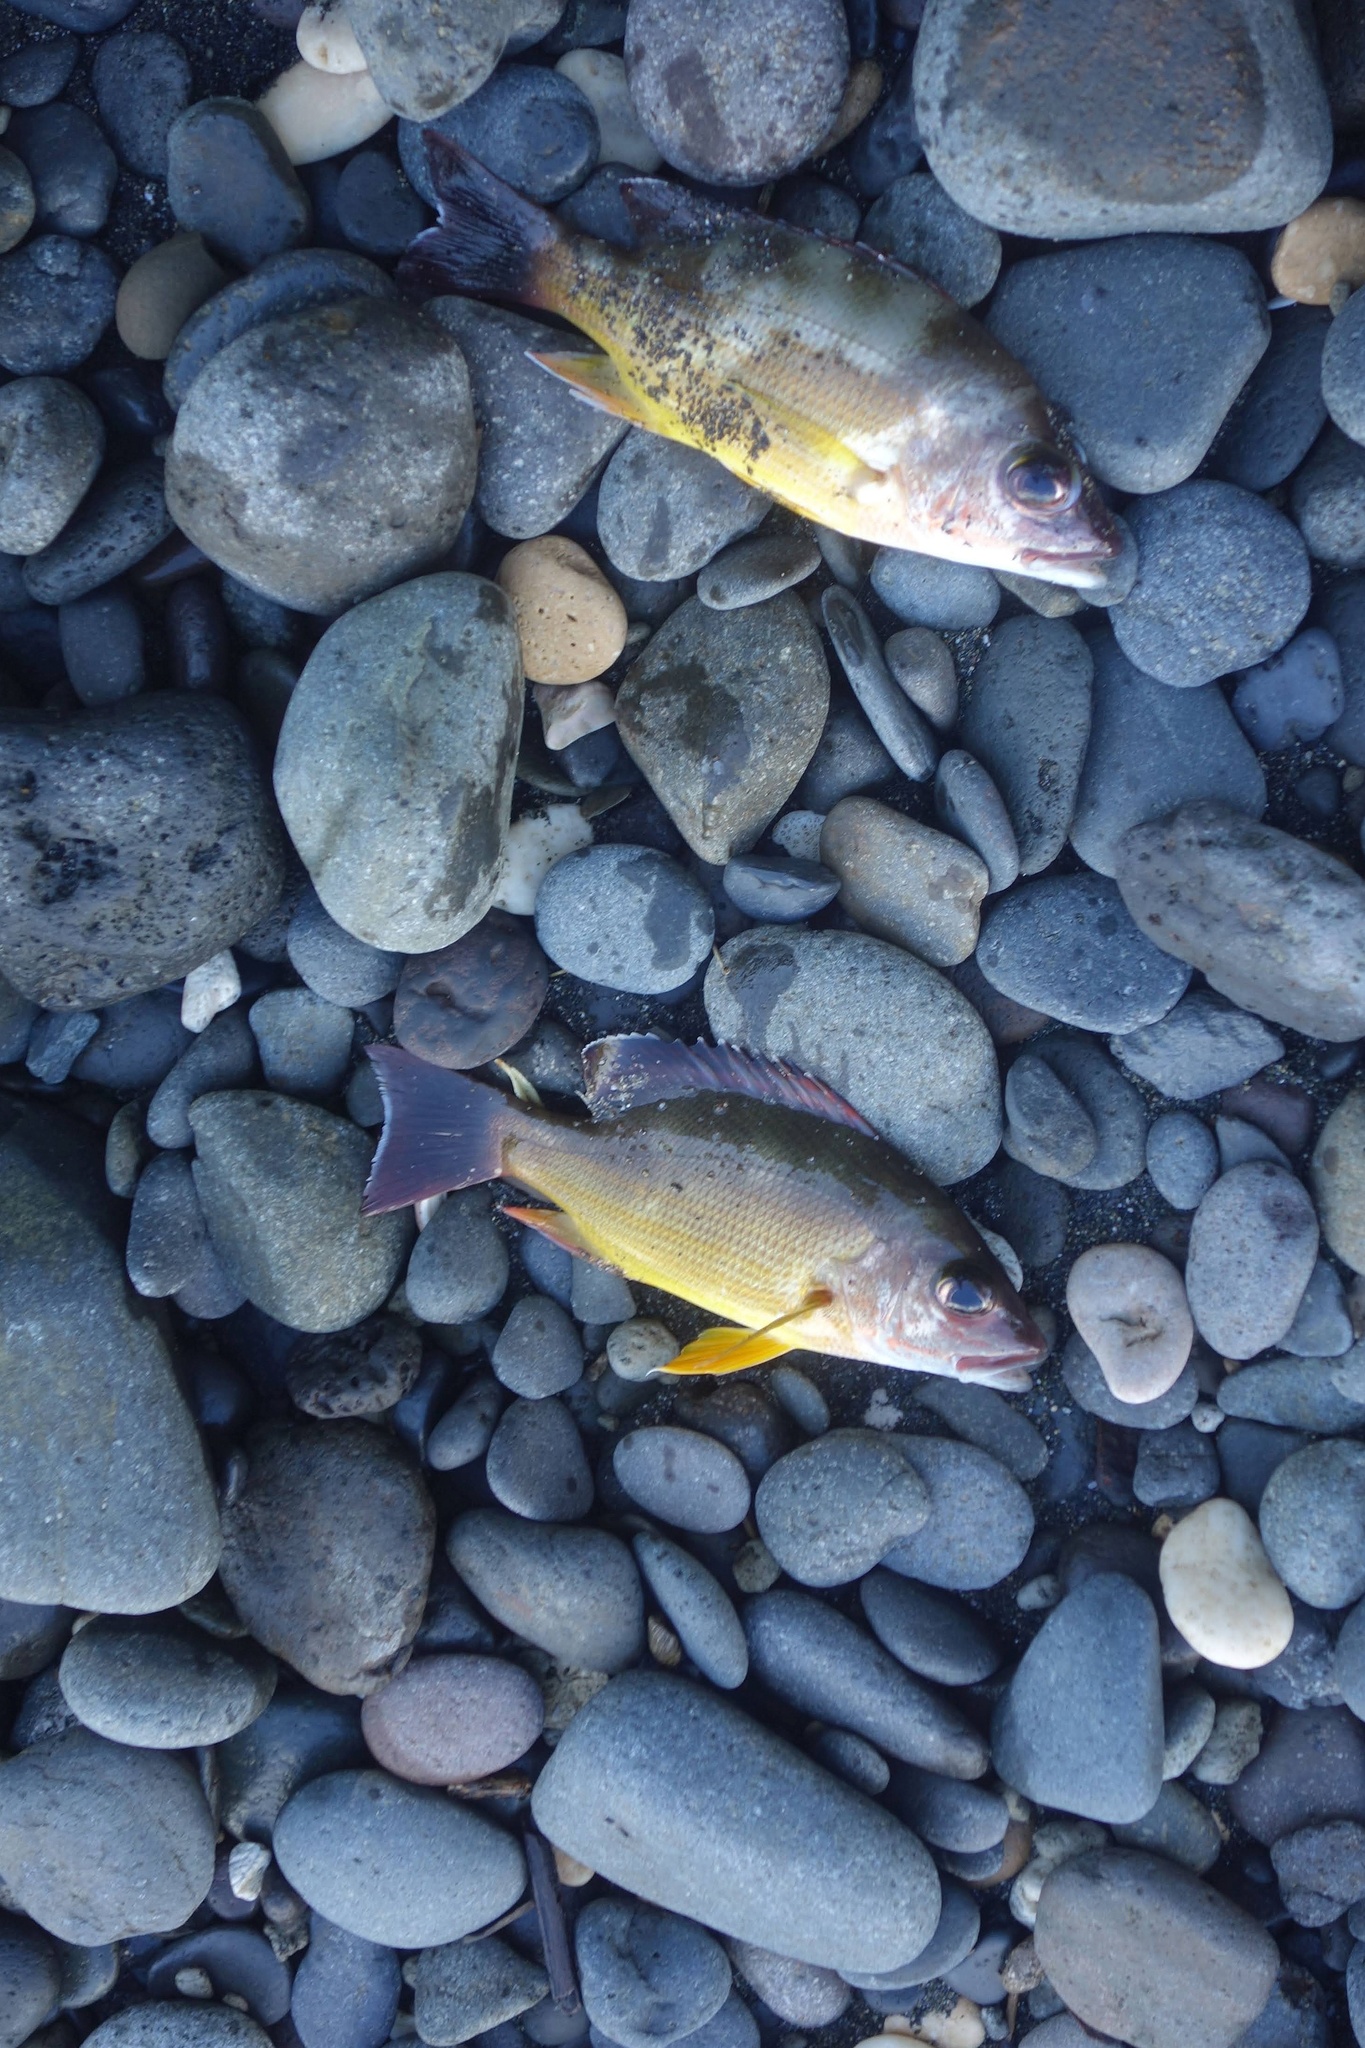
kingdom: Animalia
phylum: Chordata
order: Perciformes
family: Lutjanidae
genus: Lutjanus
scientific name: Lutjanus fulvus
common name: Blacktail snapper
